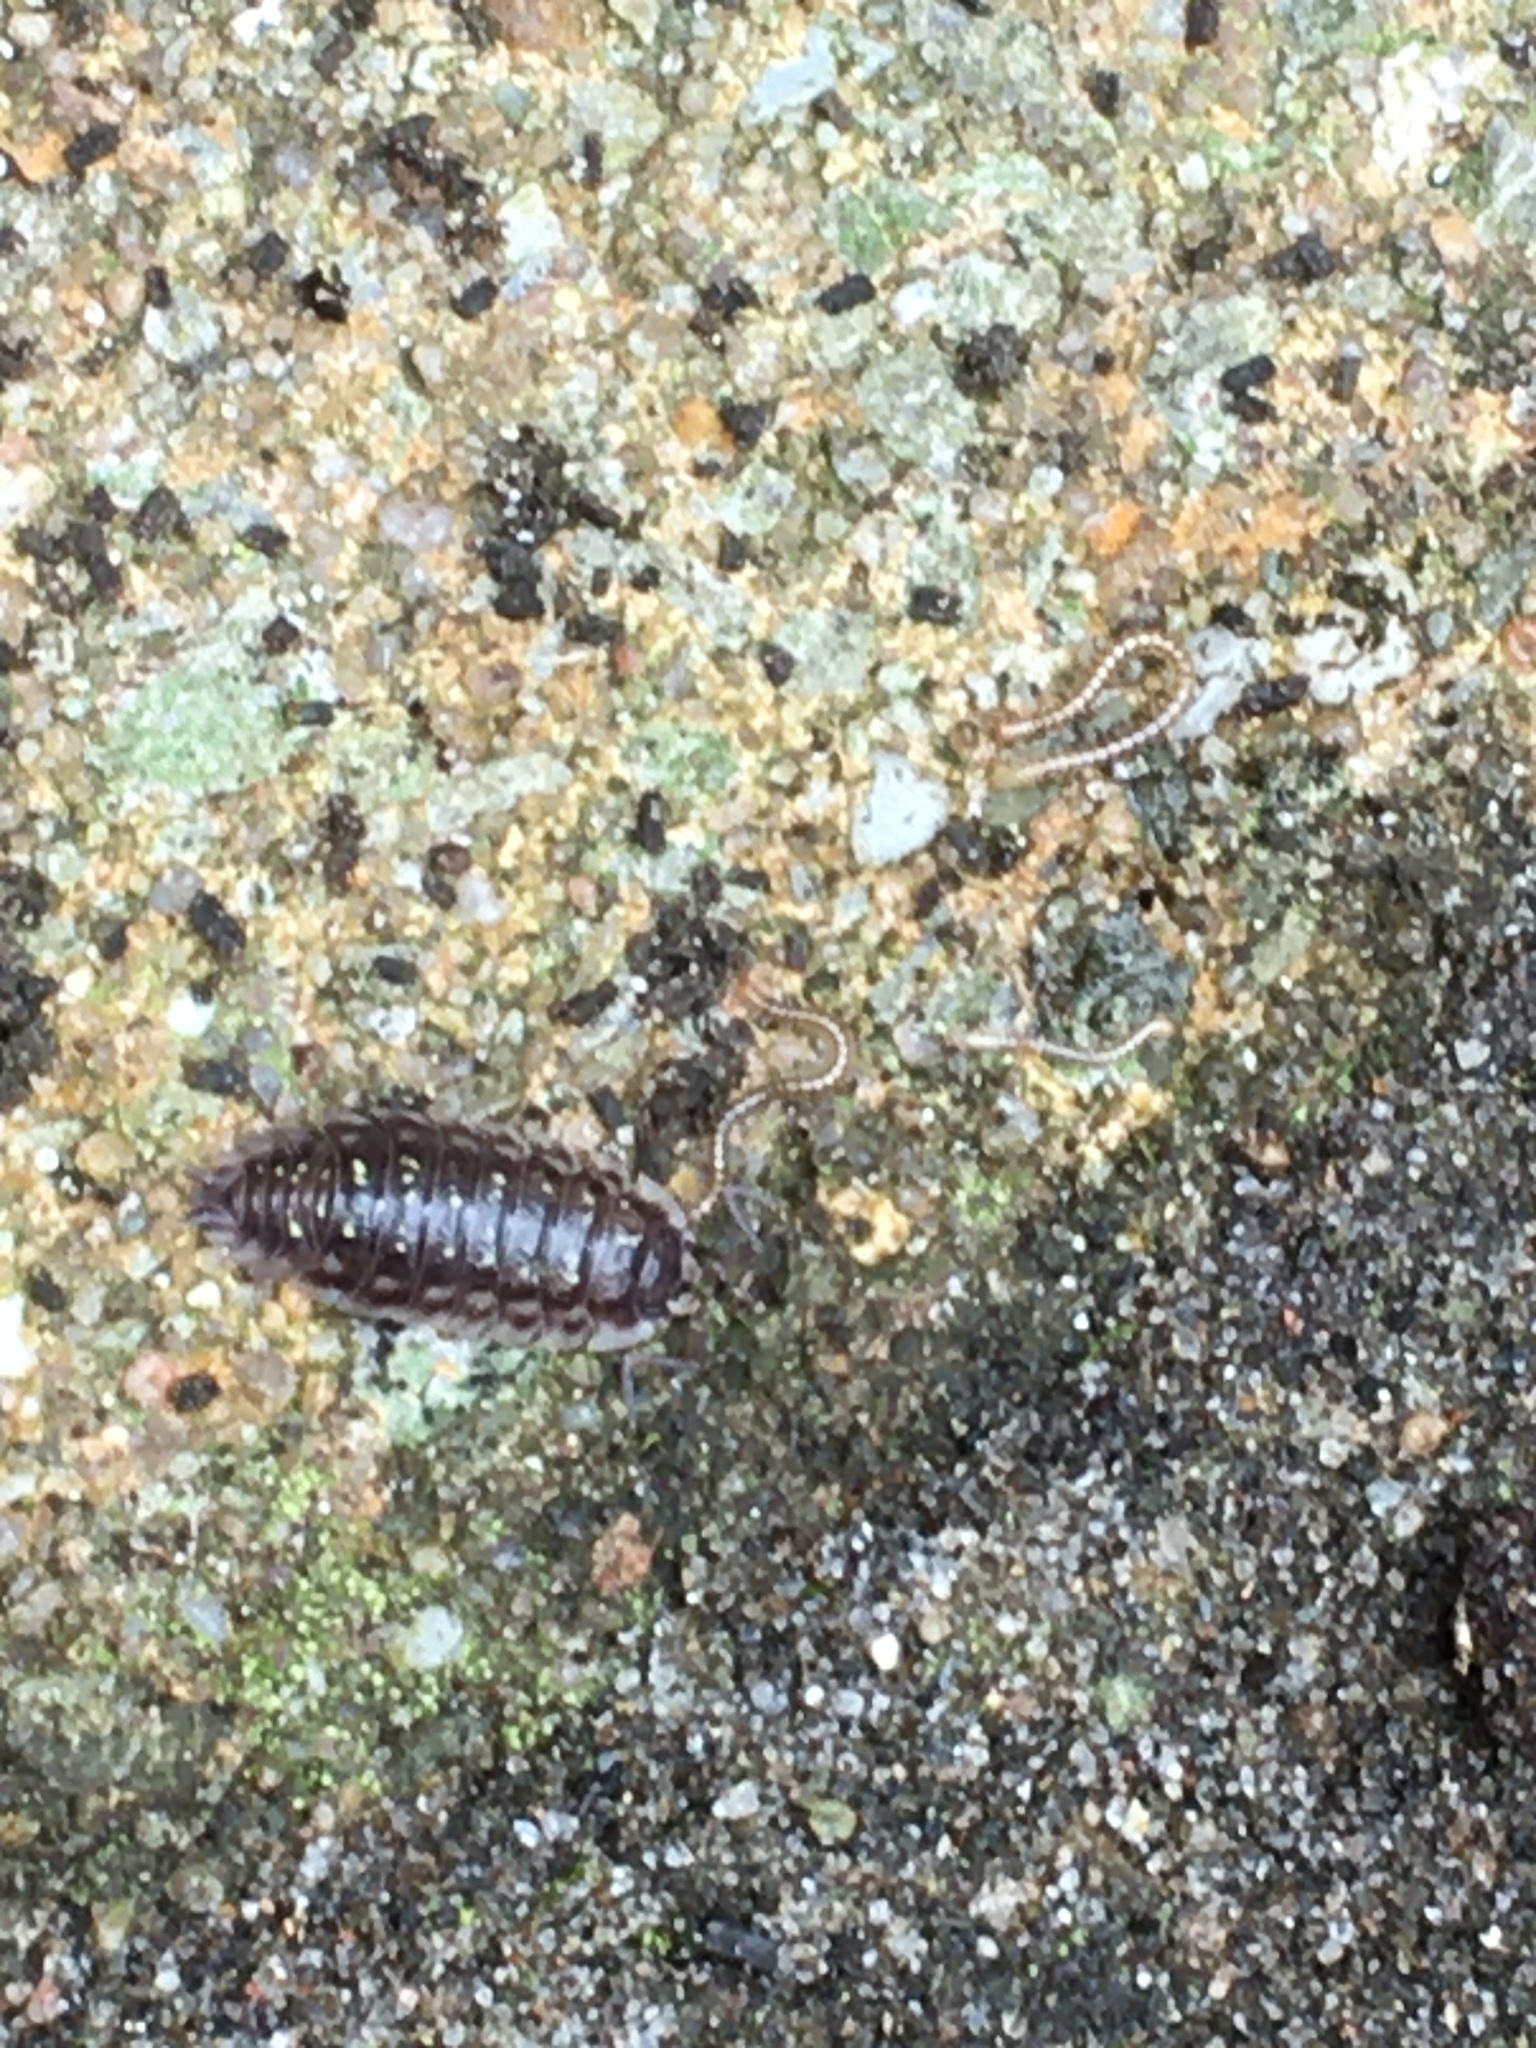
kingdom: Animalia
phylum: Arthropoda
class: Malacostraca
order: Isopoda
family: Oniscidae
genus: Oniscus
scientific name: Oniscus asellus
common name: Common shiny woodlouse
